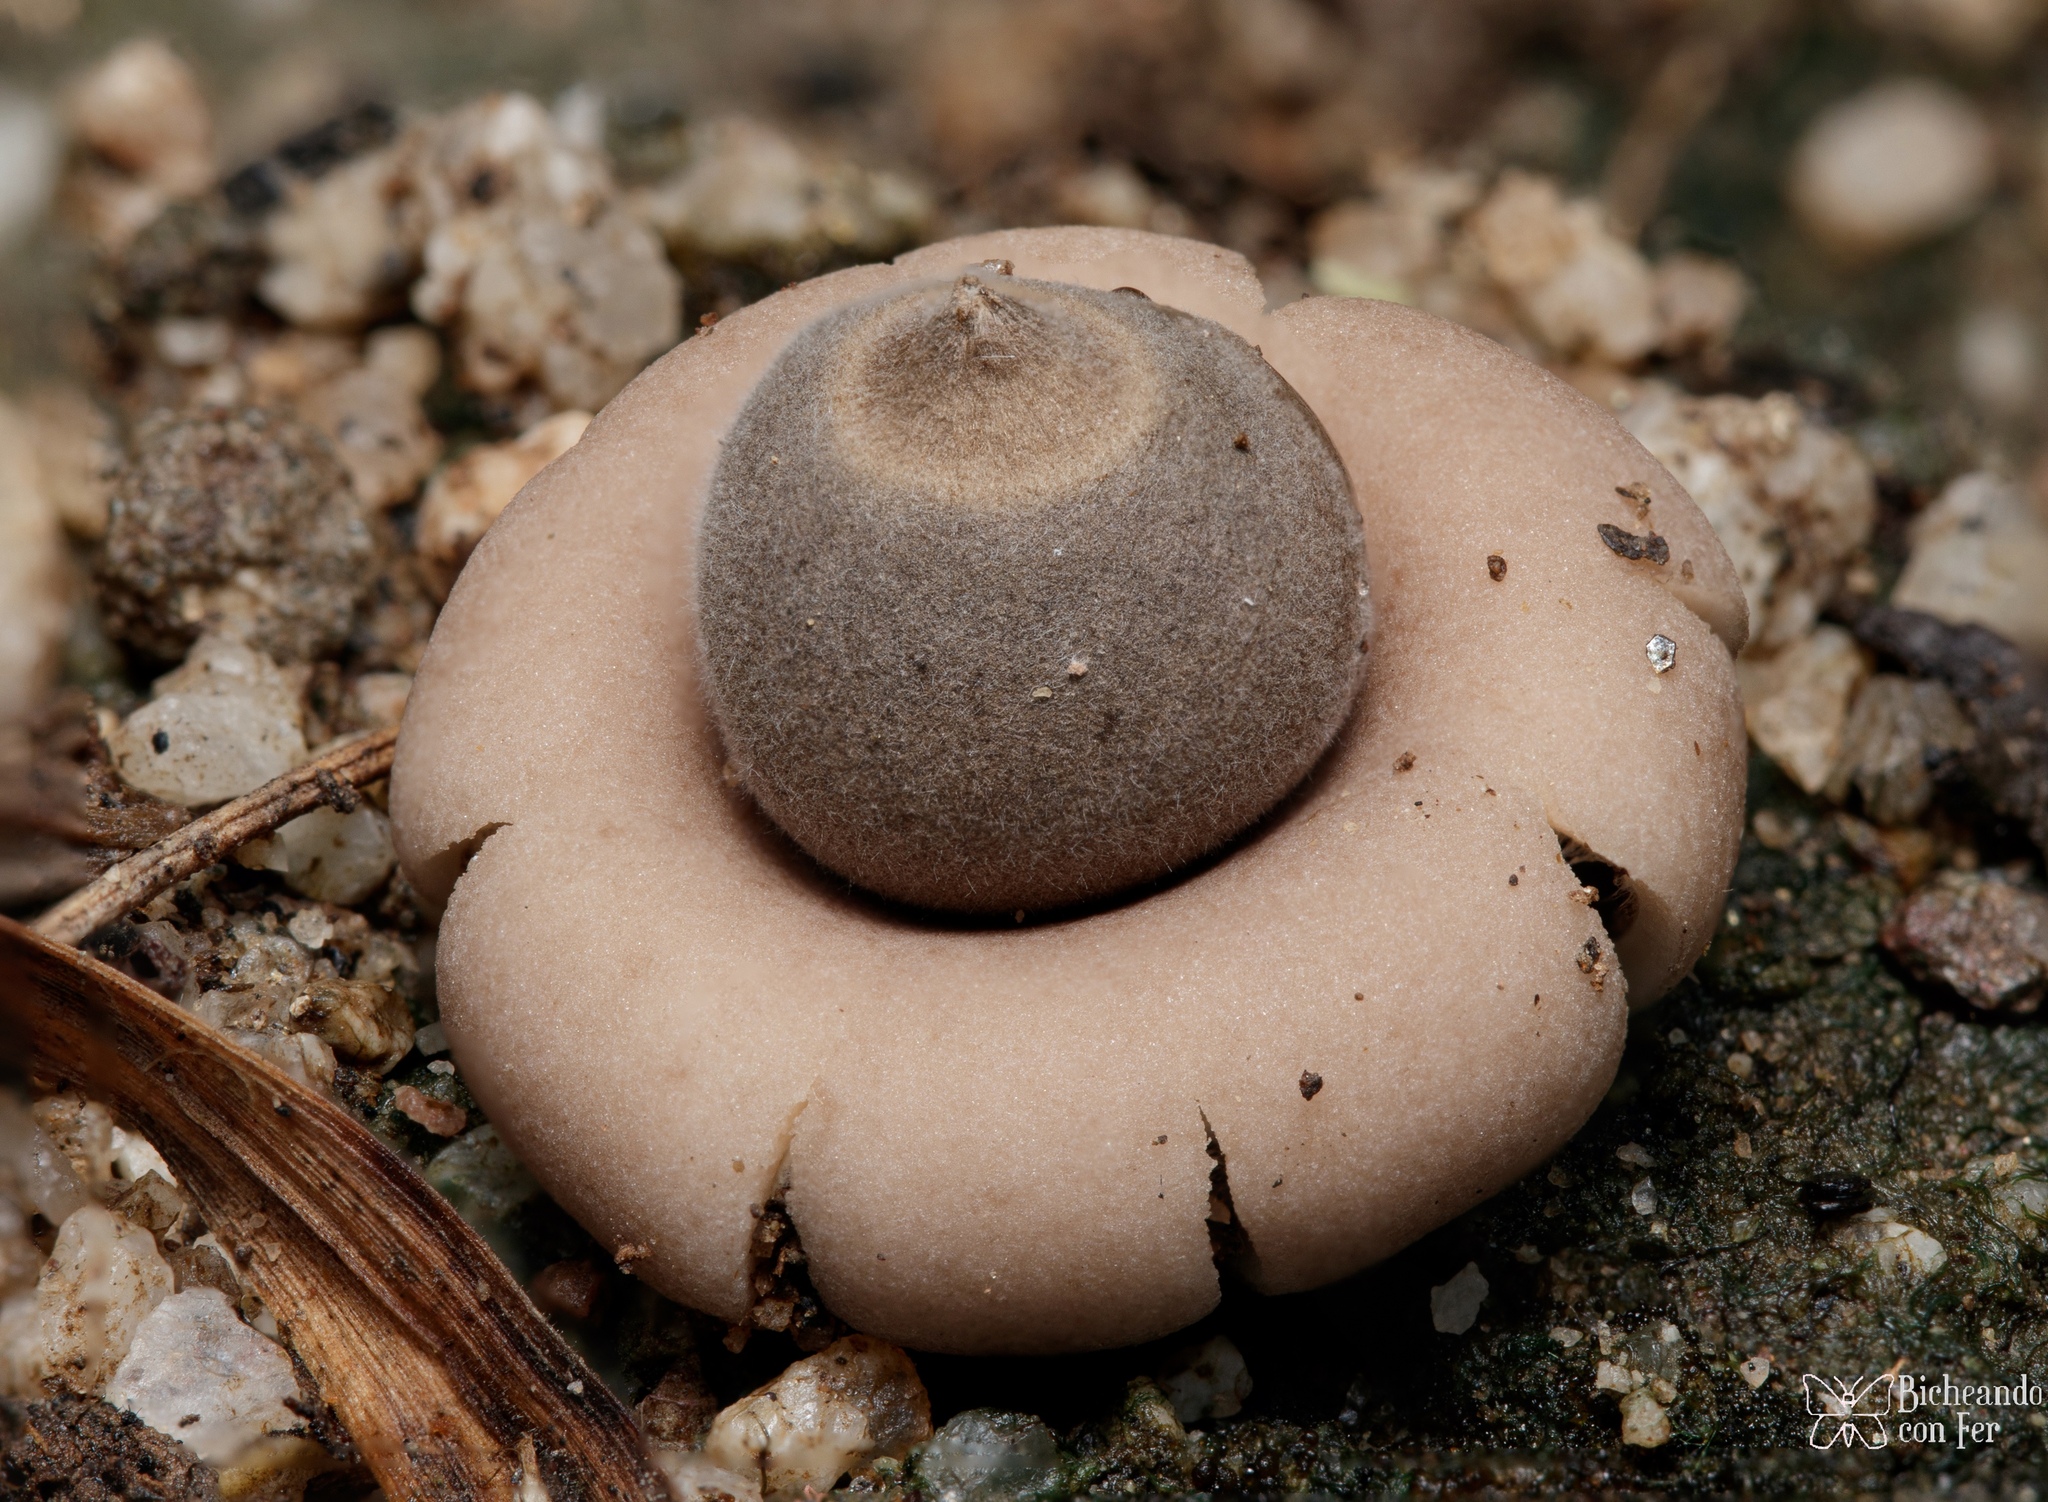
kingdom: Fungi
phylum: Basidiomycota
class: Agaricomycetes
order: Geastrales
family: Geastraceae
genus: Geastrum
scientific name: Geastrum saccatum
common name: Rounded earthstar
